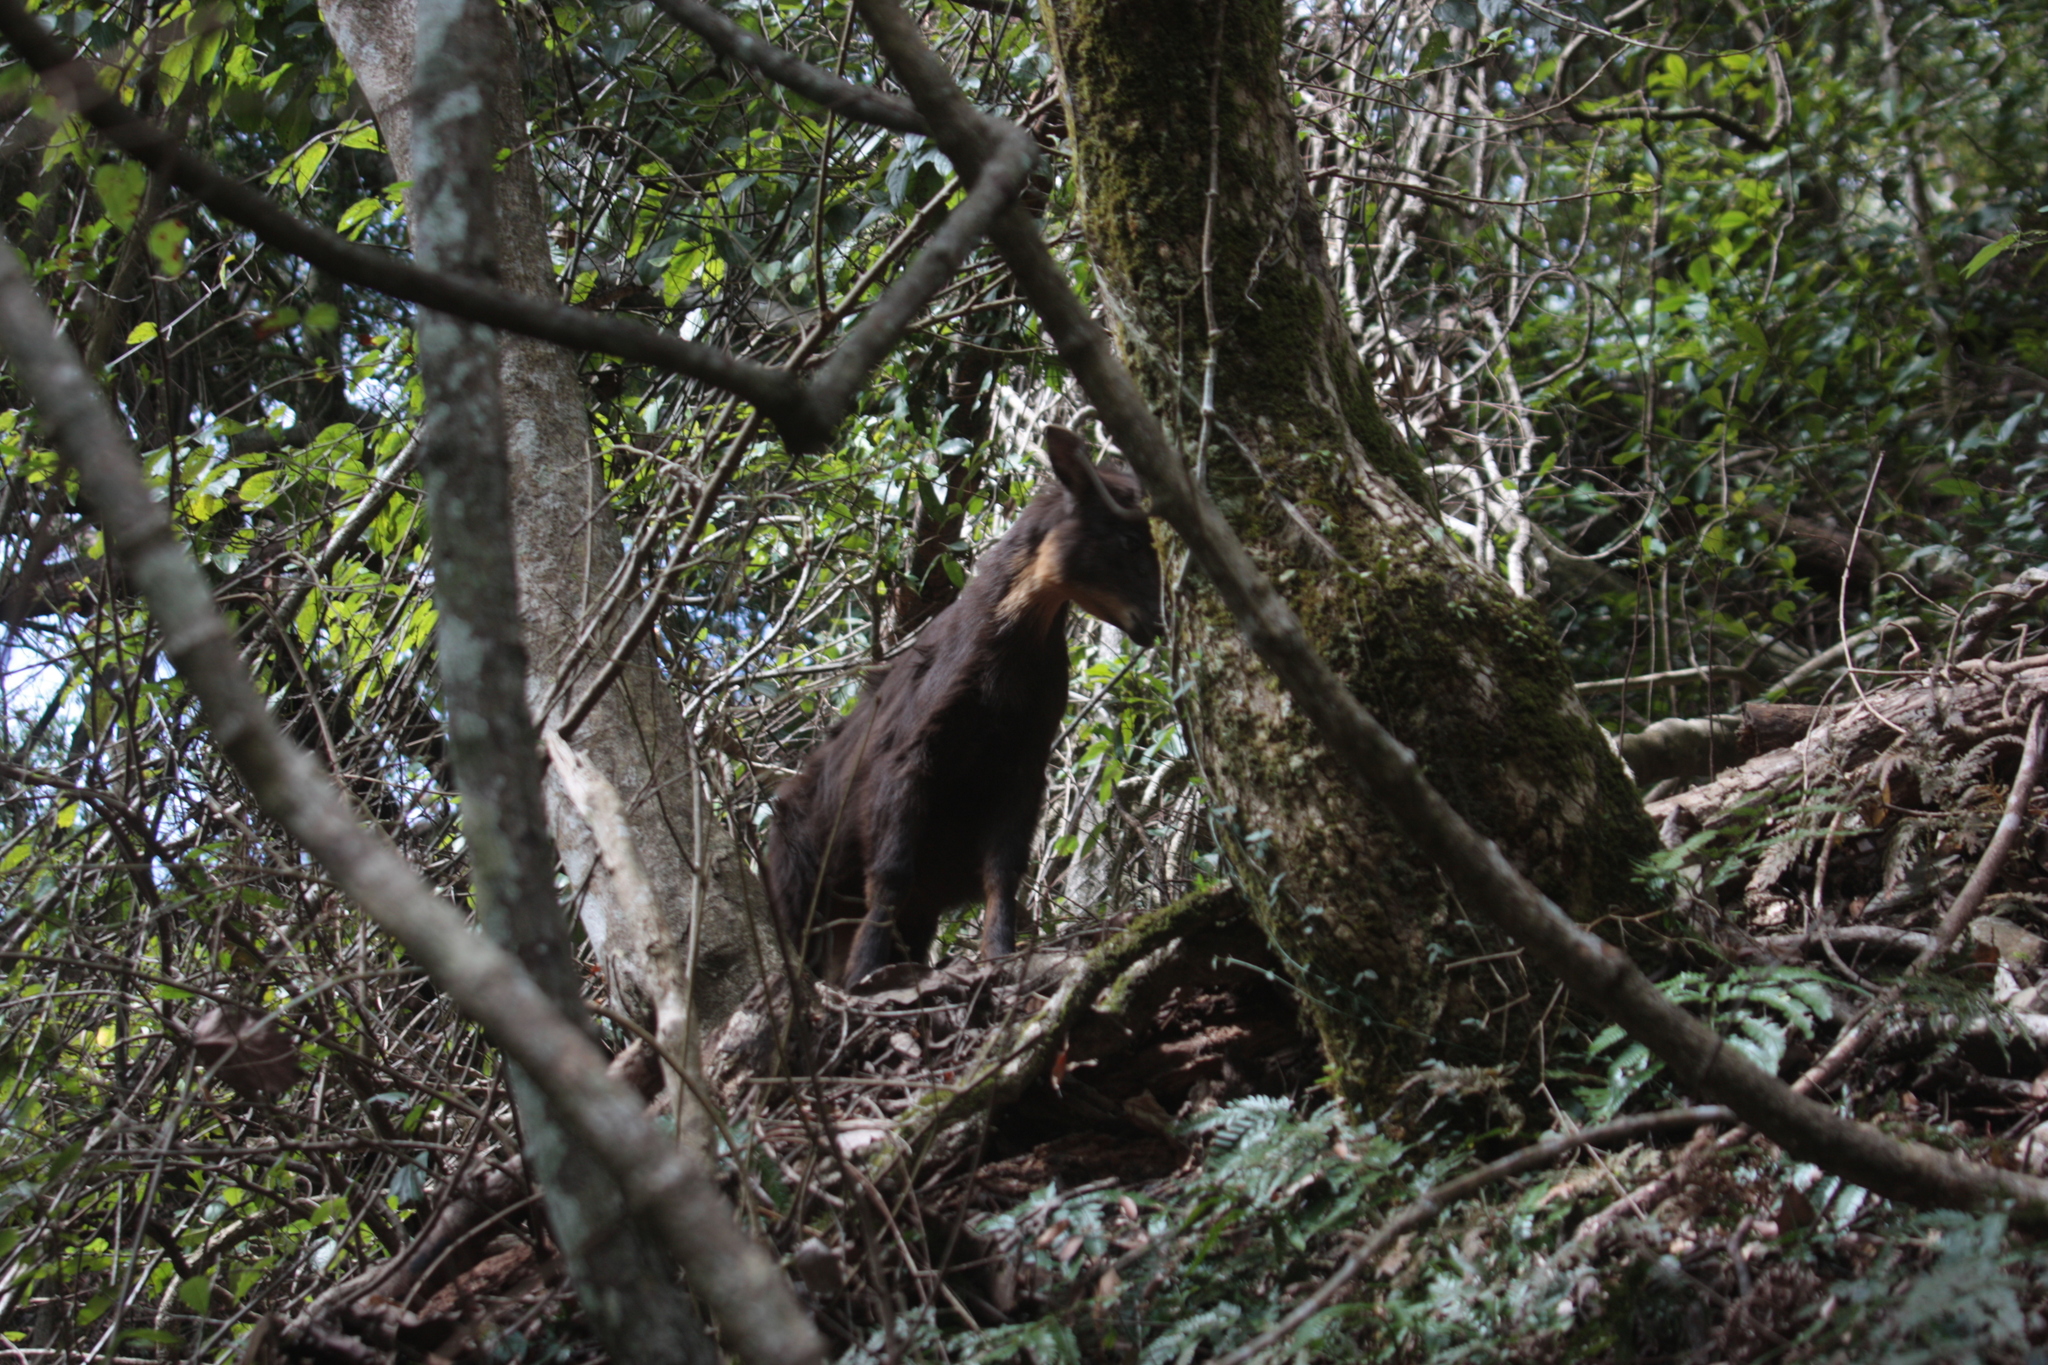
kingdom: Animalia
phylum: Chordata
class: Mammalia
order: Artiodactyla
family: Bovidae
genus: Capricornis
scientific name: Capricornis swinhoei
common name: Formosan serow
